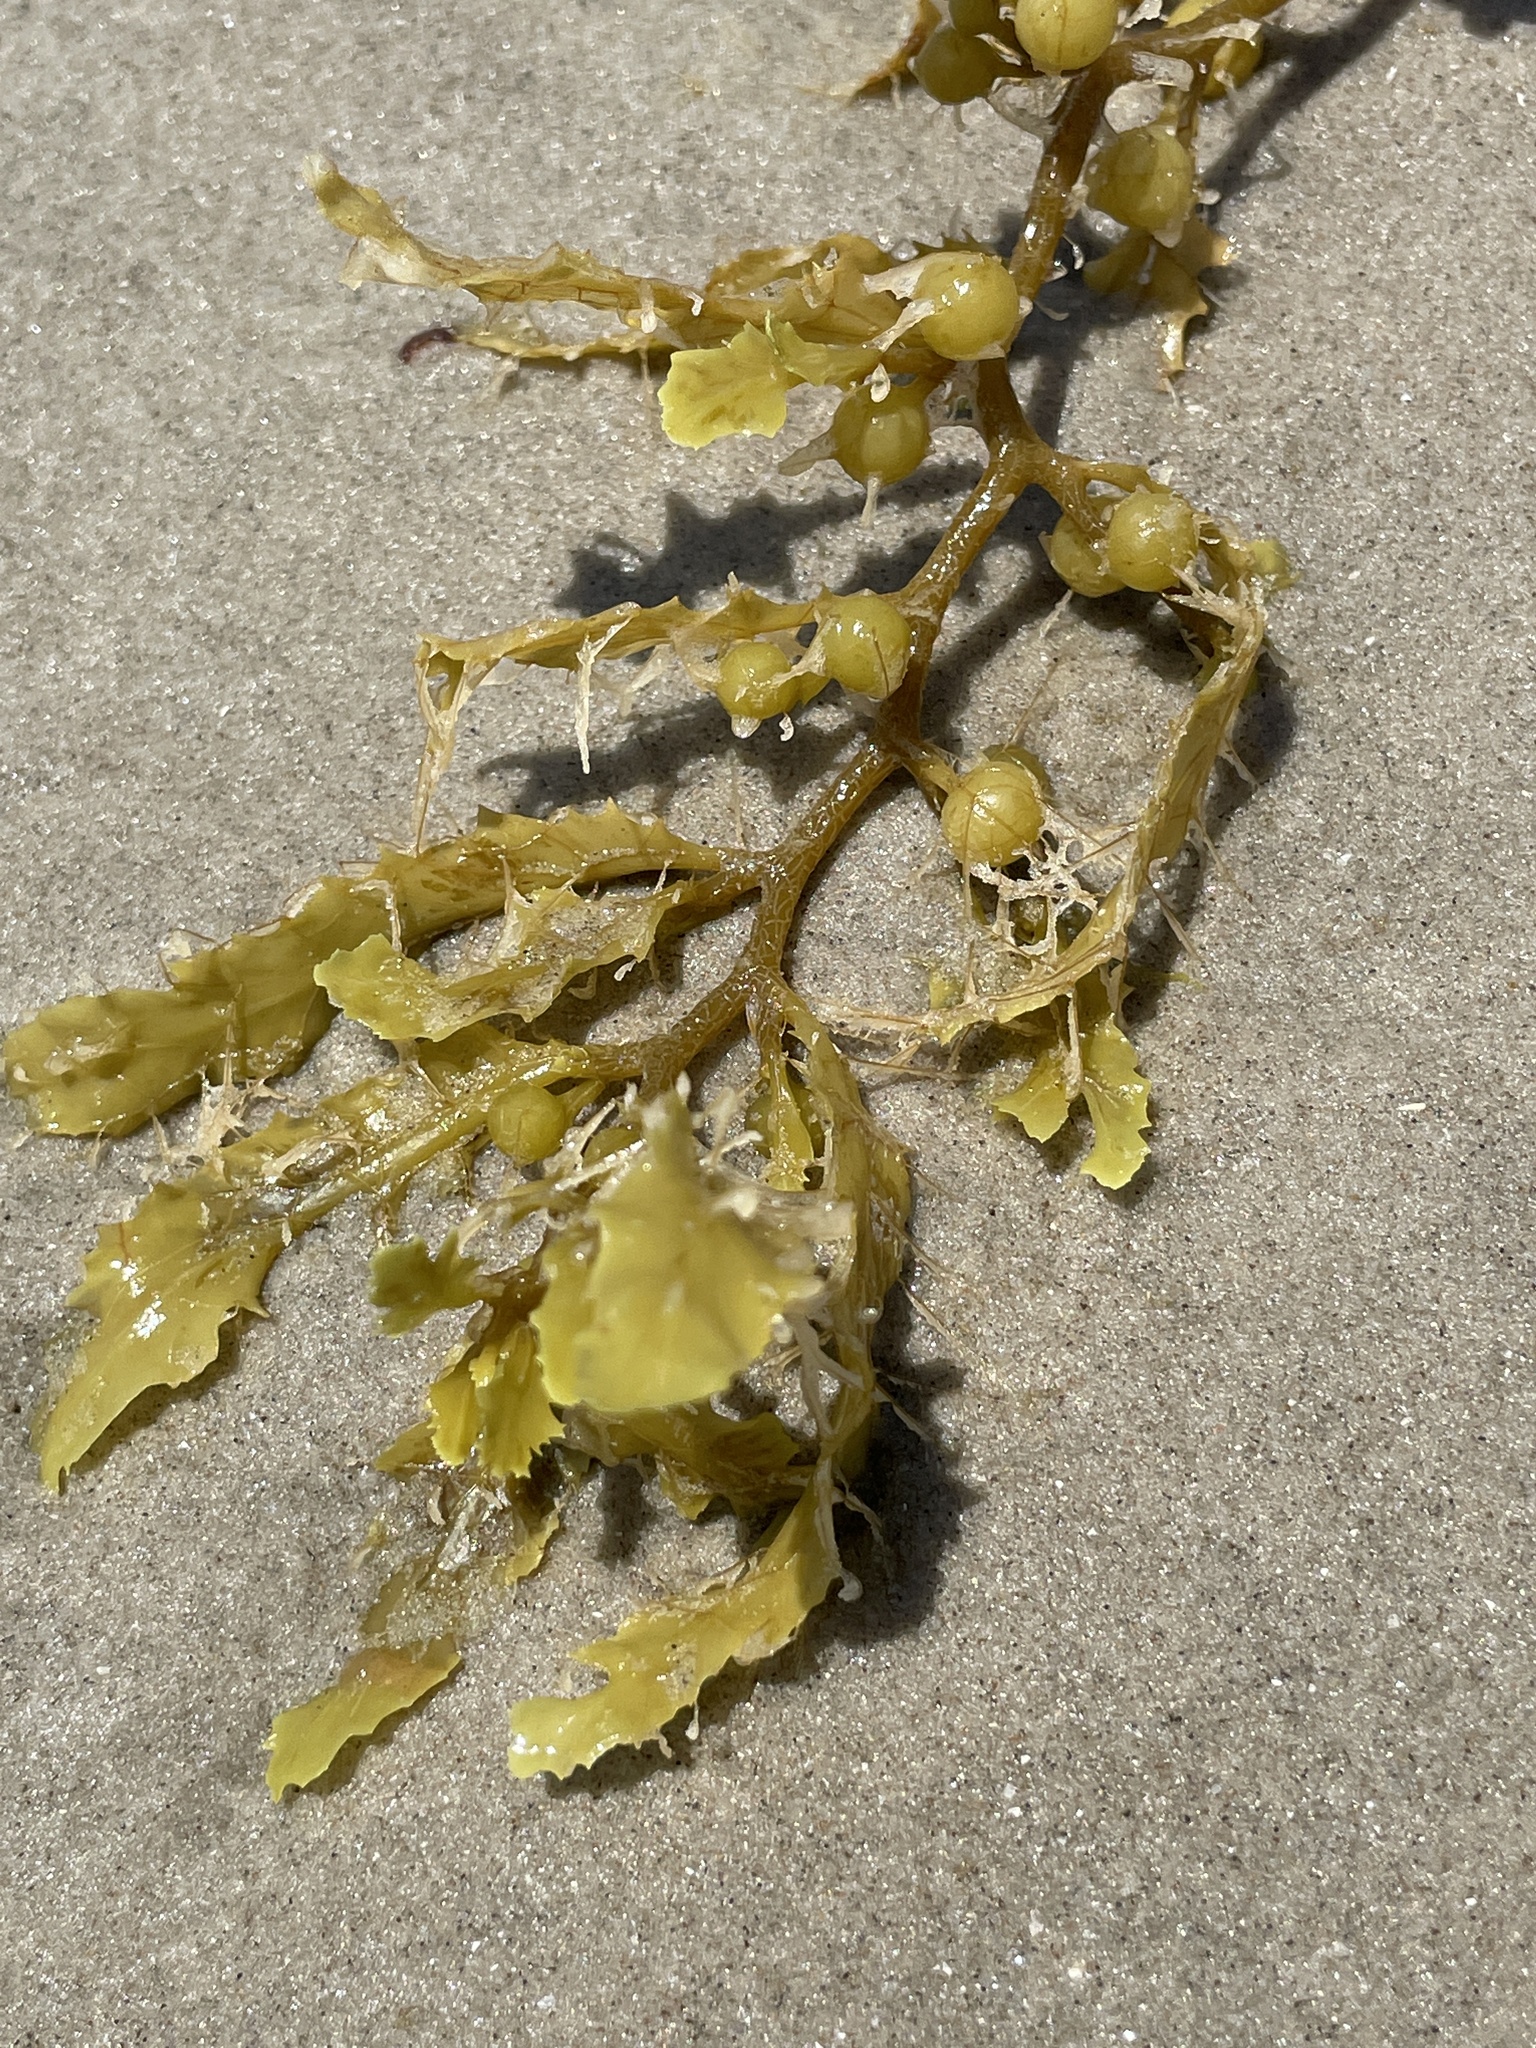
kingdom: Chromista
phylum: Ochrophyta
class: Phaeophyceae
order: Fucales
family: Sargassaceae
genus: Sargassum
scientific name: Sargassum fluitans
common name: Sargassum seaweed
